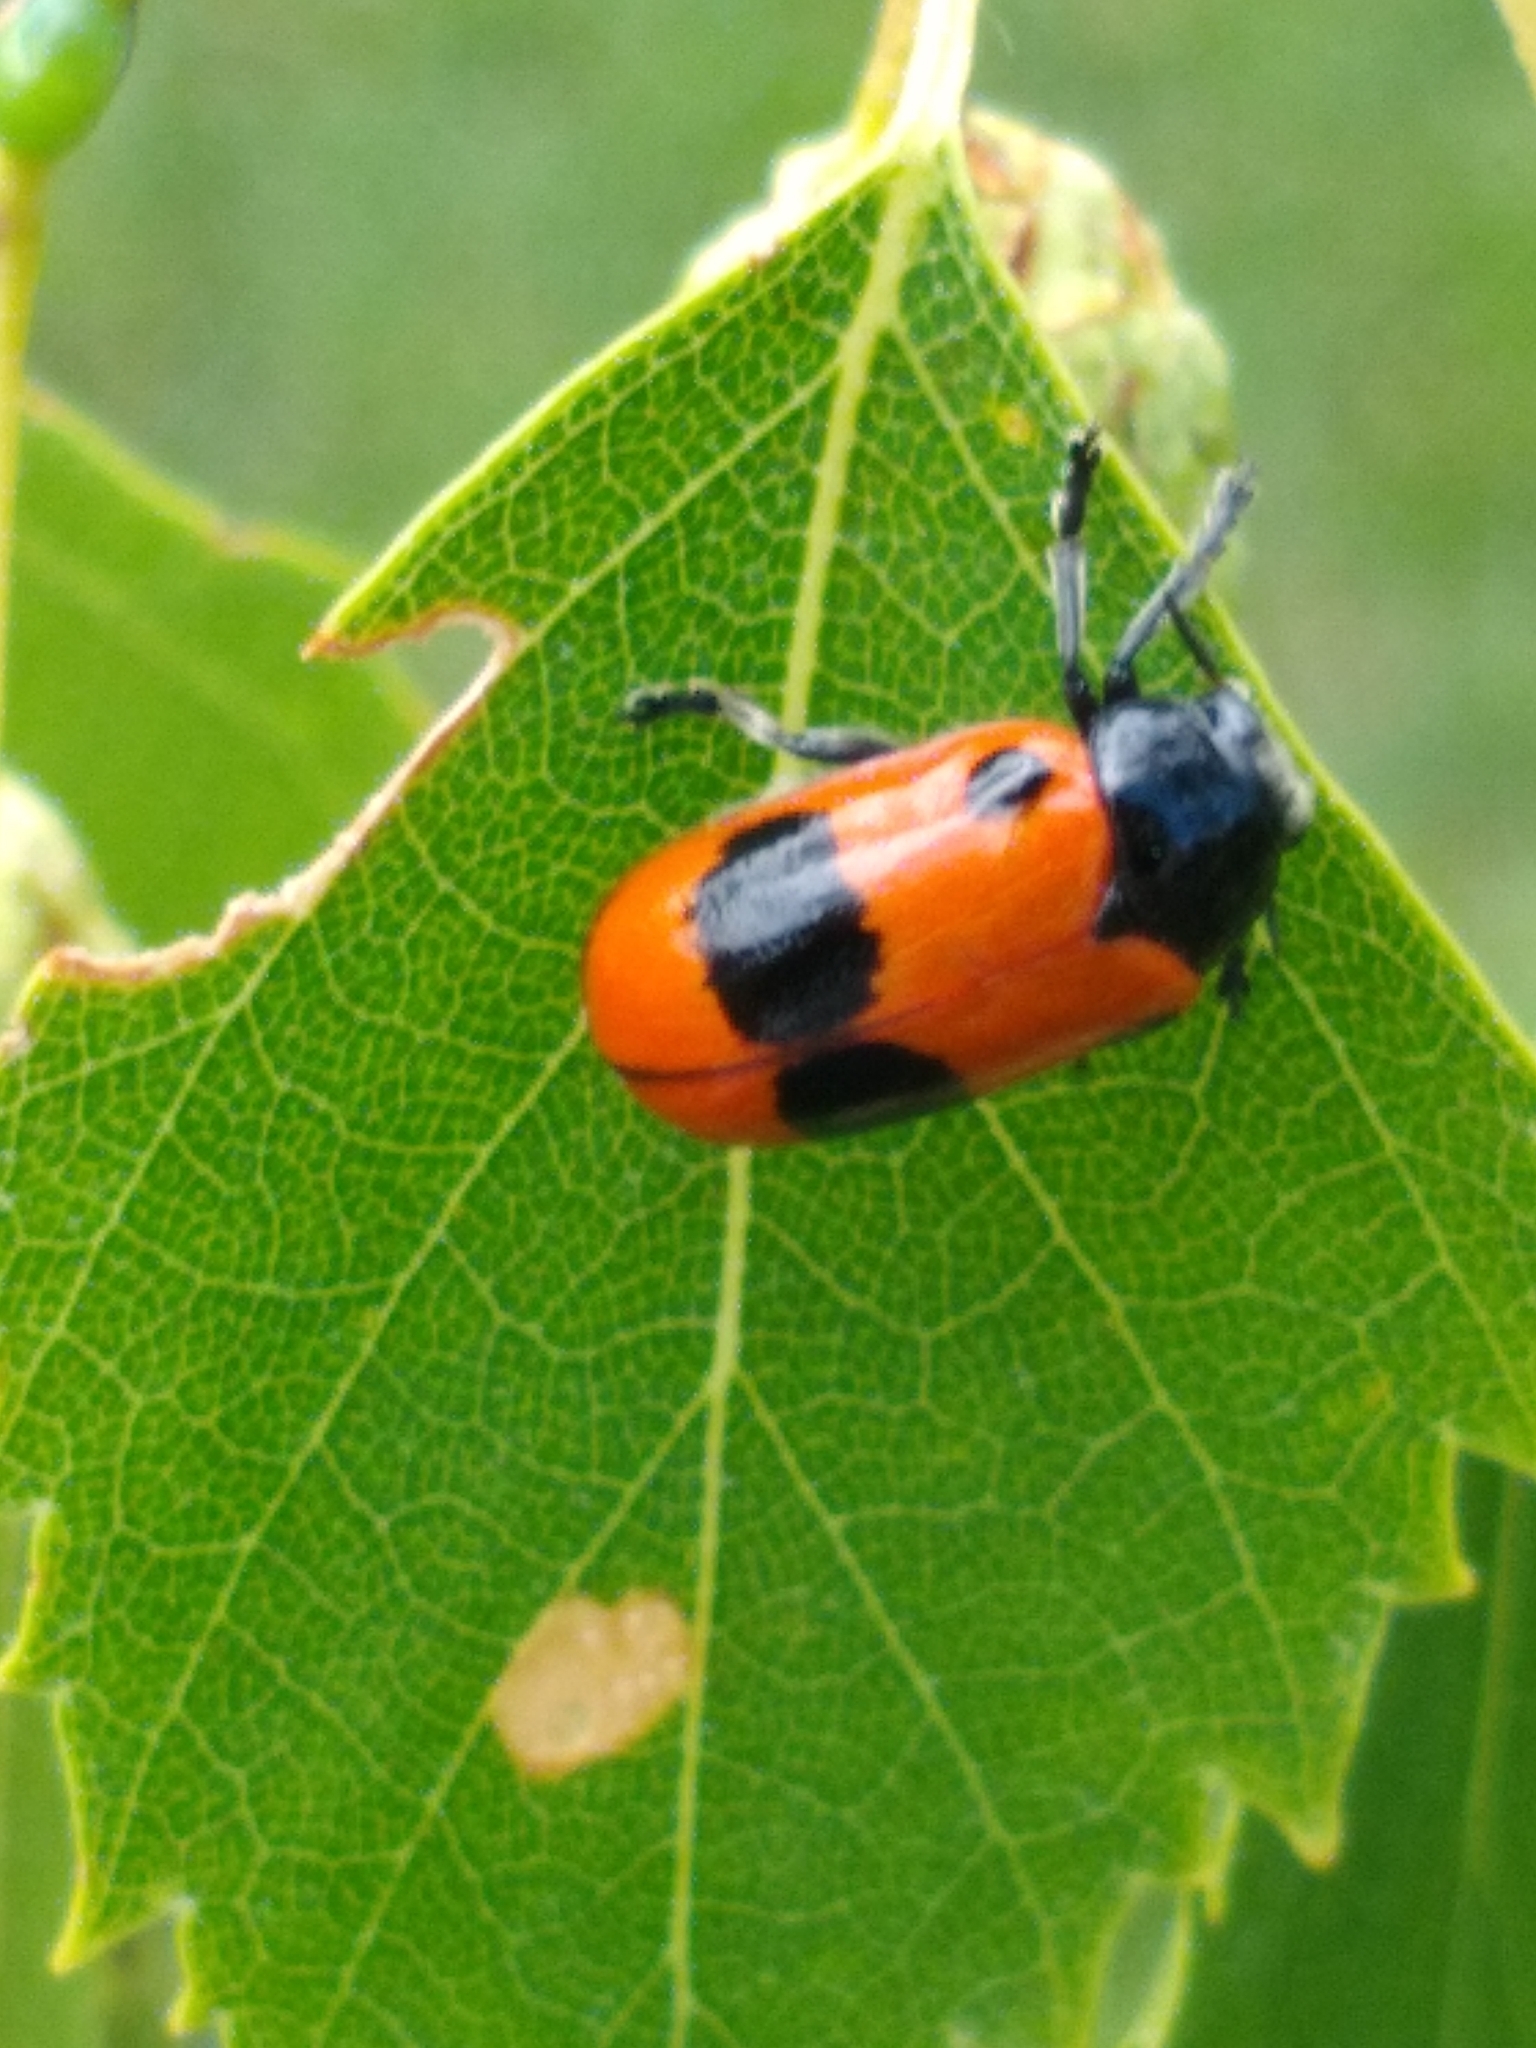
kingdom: Animalia
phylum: Arthropoda
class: Insecta
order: Coleoptera
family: Chrysomelidae
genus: Clytra
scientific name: Clytra laeviuscula
